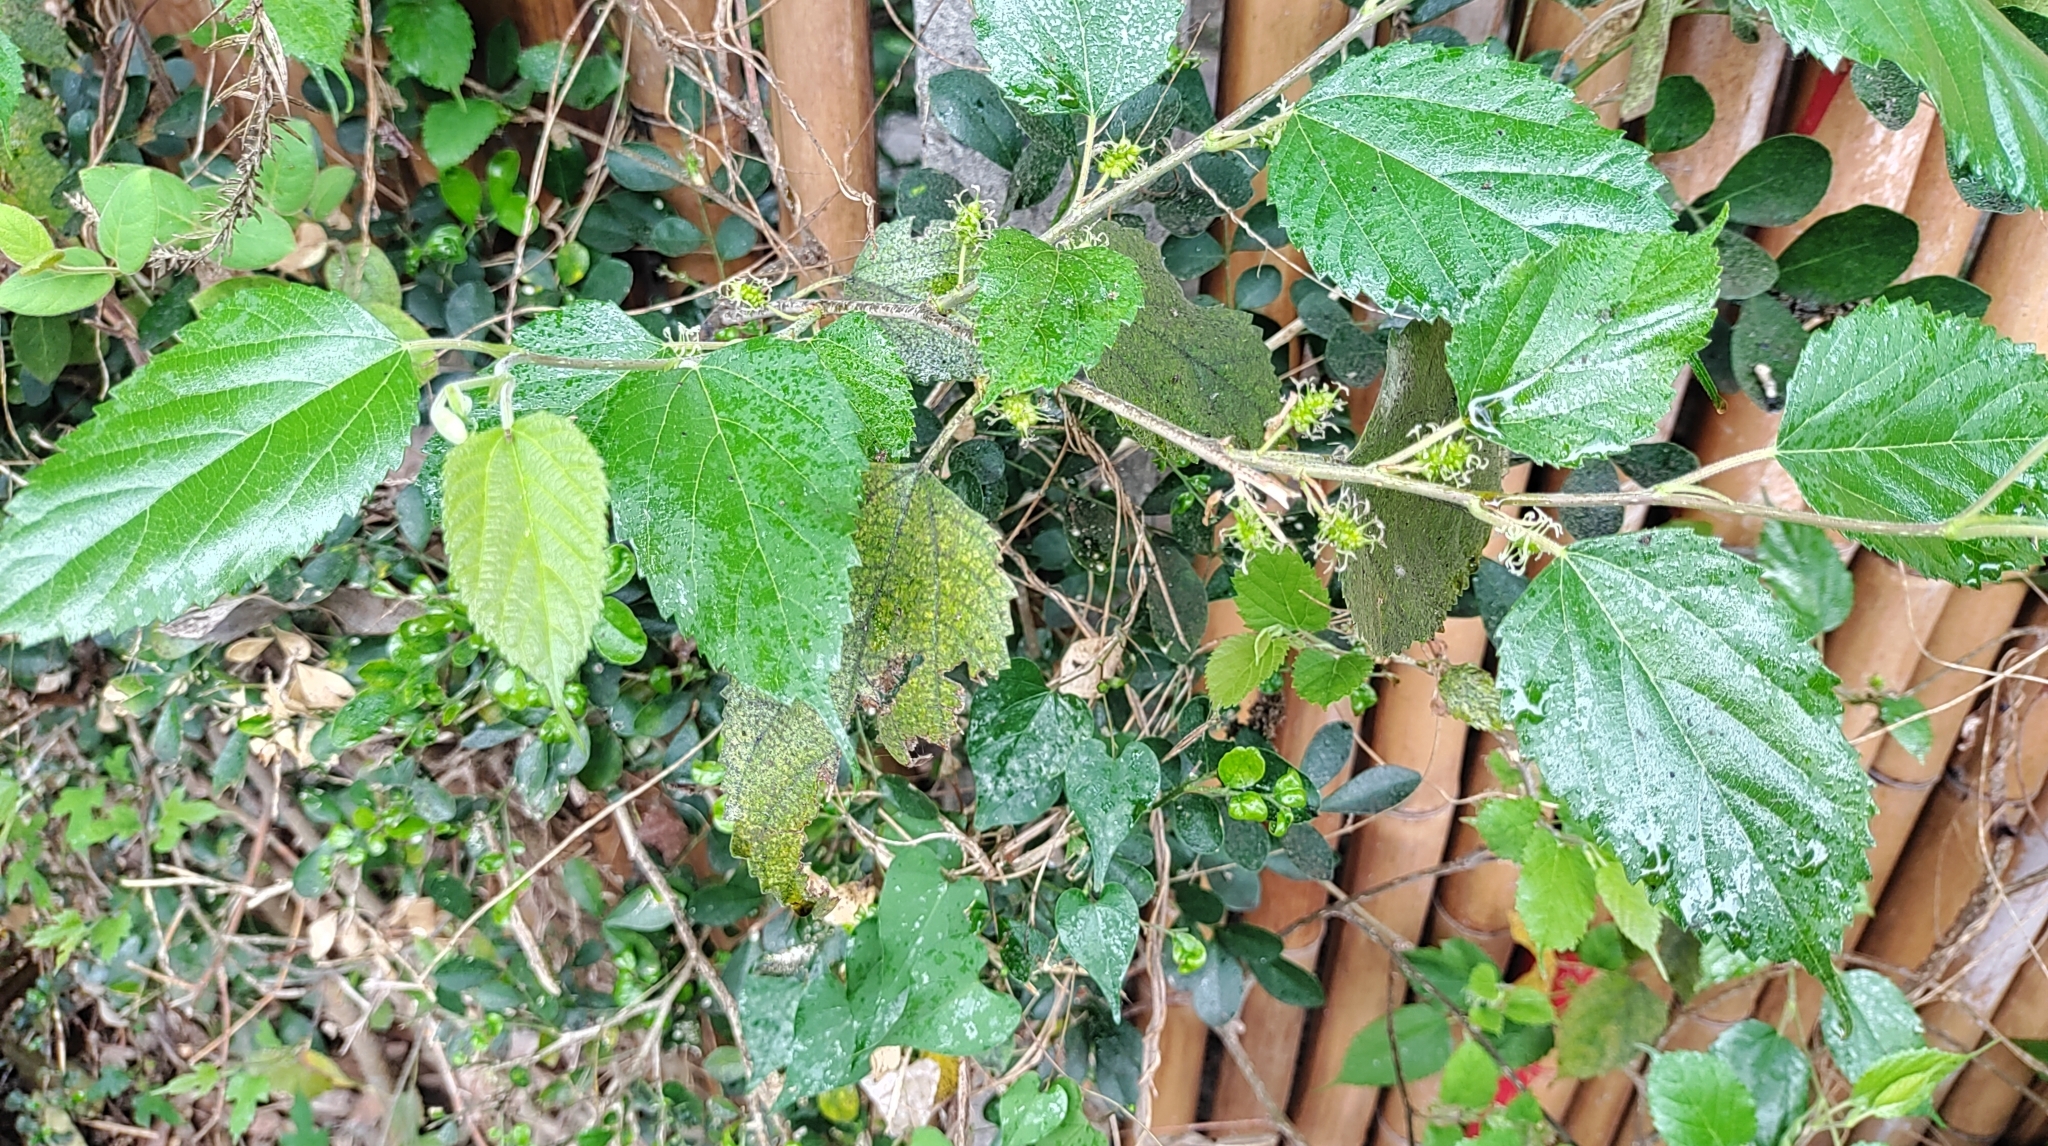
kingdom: Plantae
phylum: Tracheophyta
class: Magnoliopsida
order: Rosales
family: Moraceae
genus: Morus
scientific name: Morus indica
